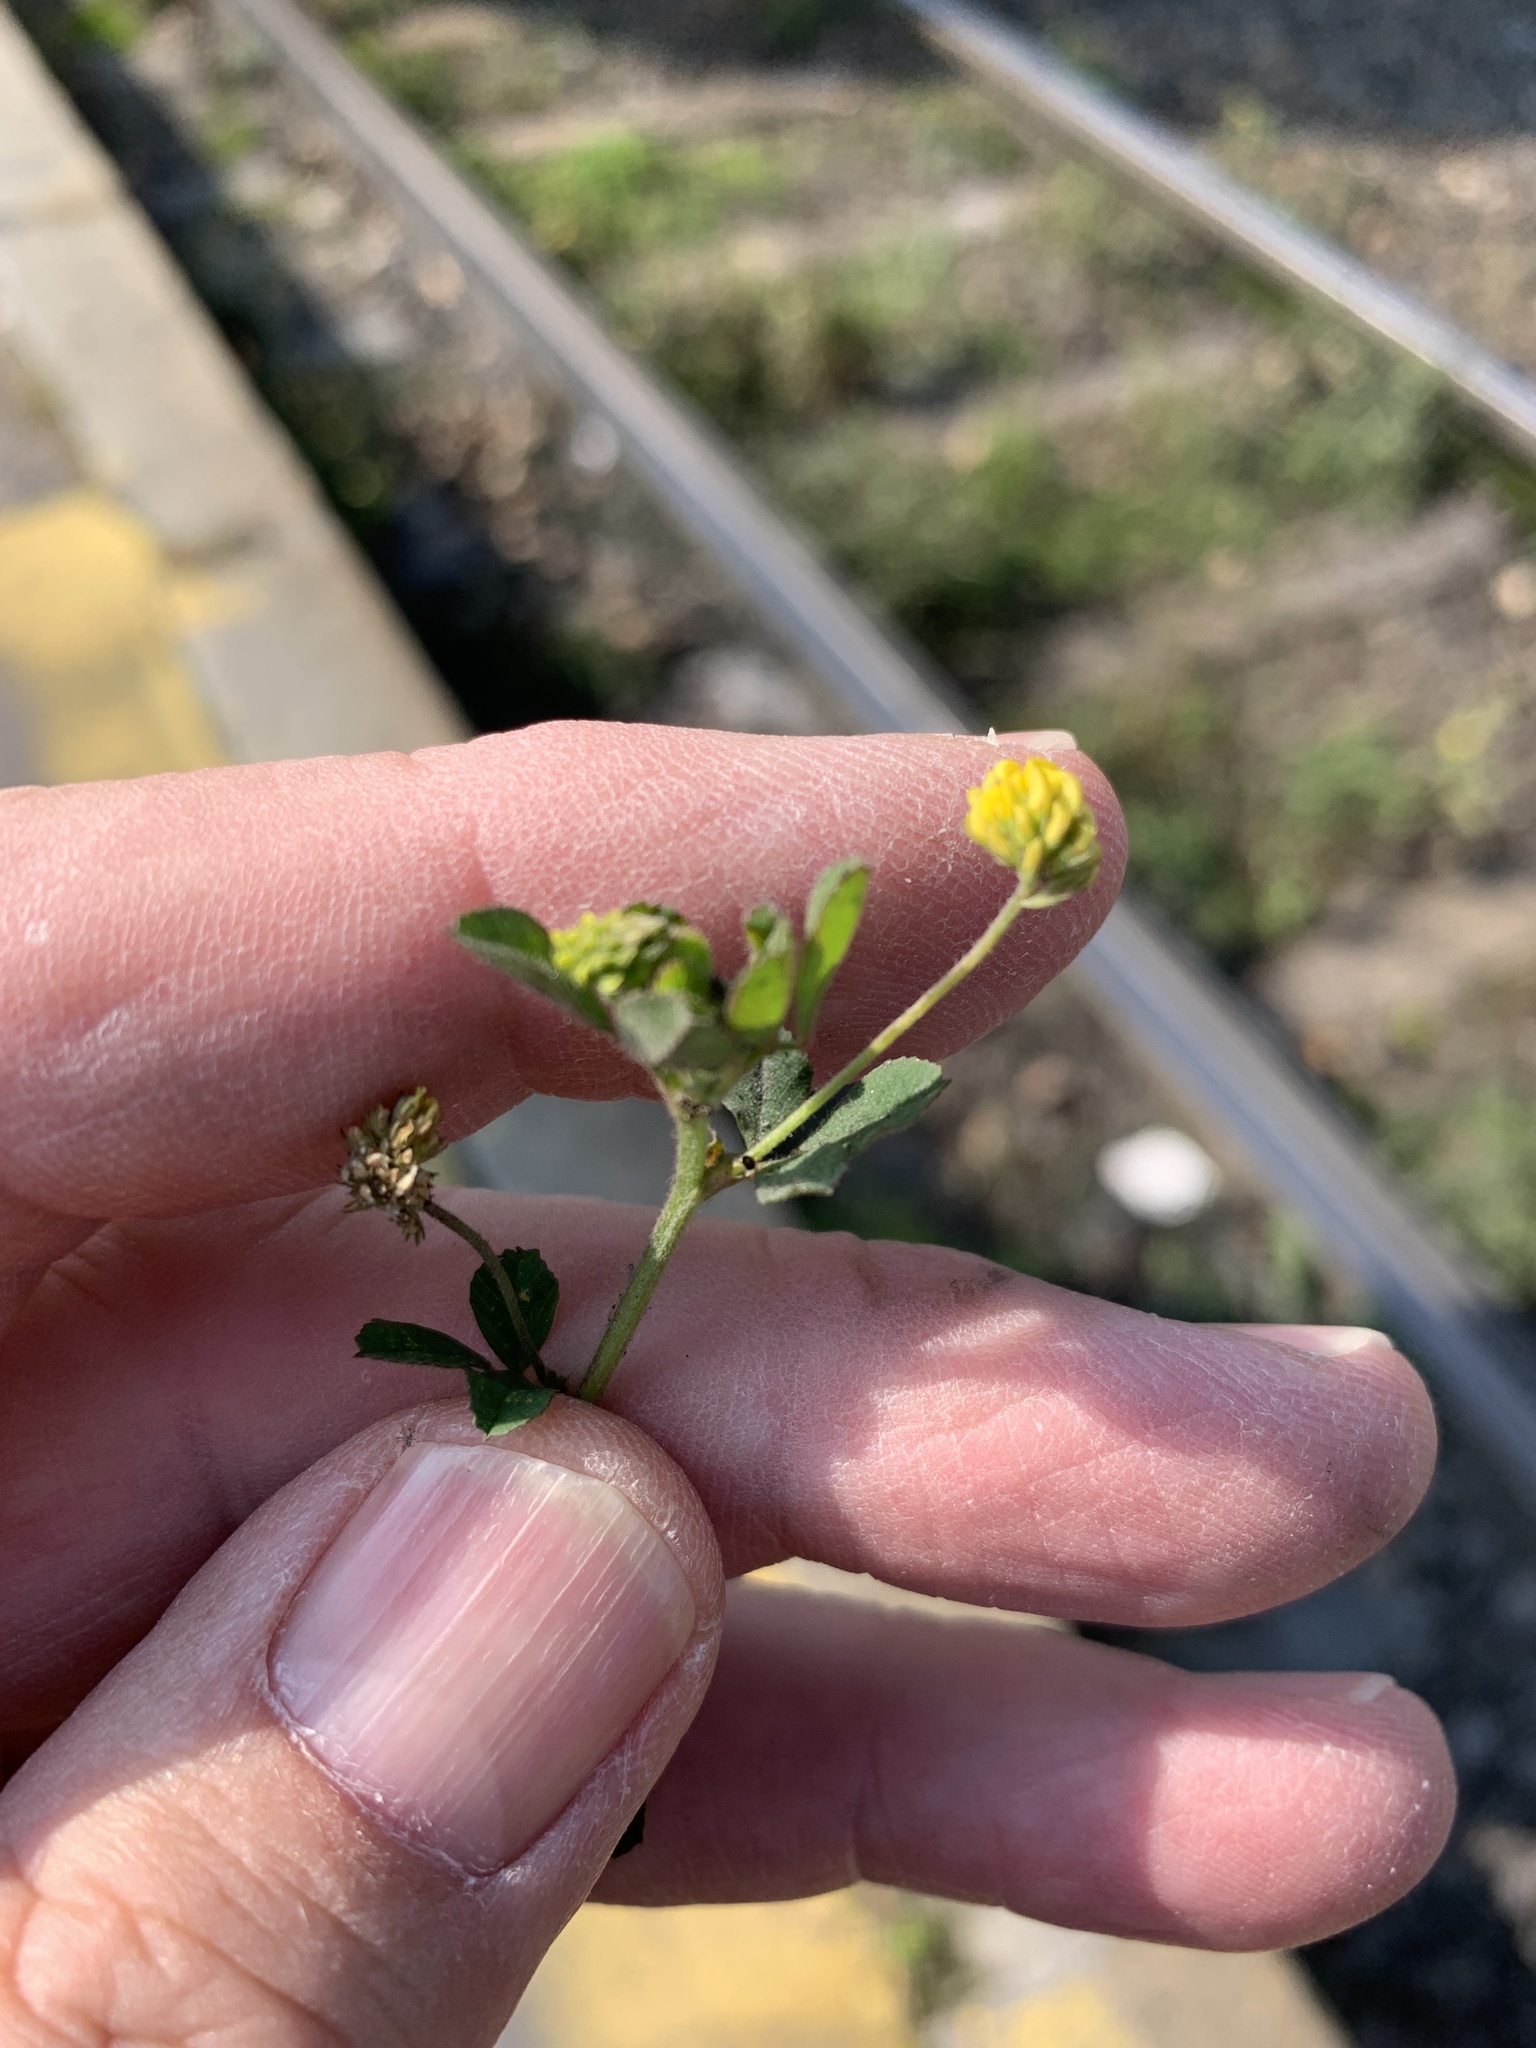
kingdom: Plantae
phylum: Tracheophyta
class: Magnoliopsida
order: Fabales
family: Fabaceae
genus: Medicago
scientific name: Medicago lupulina
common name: Black medick
